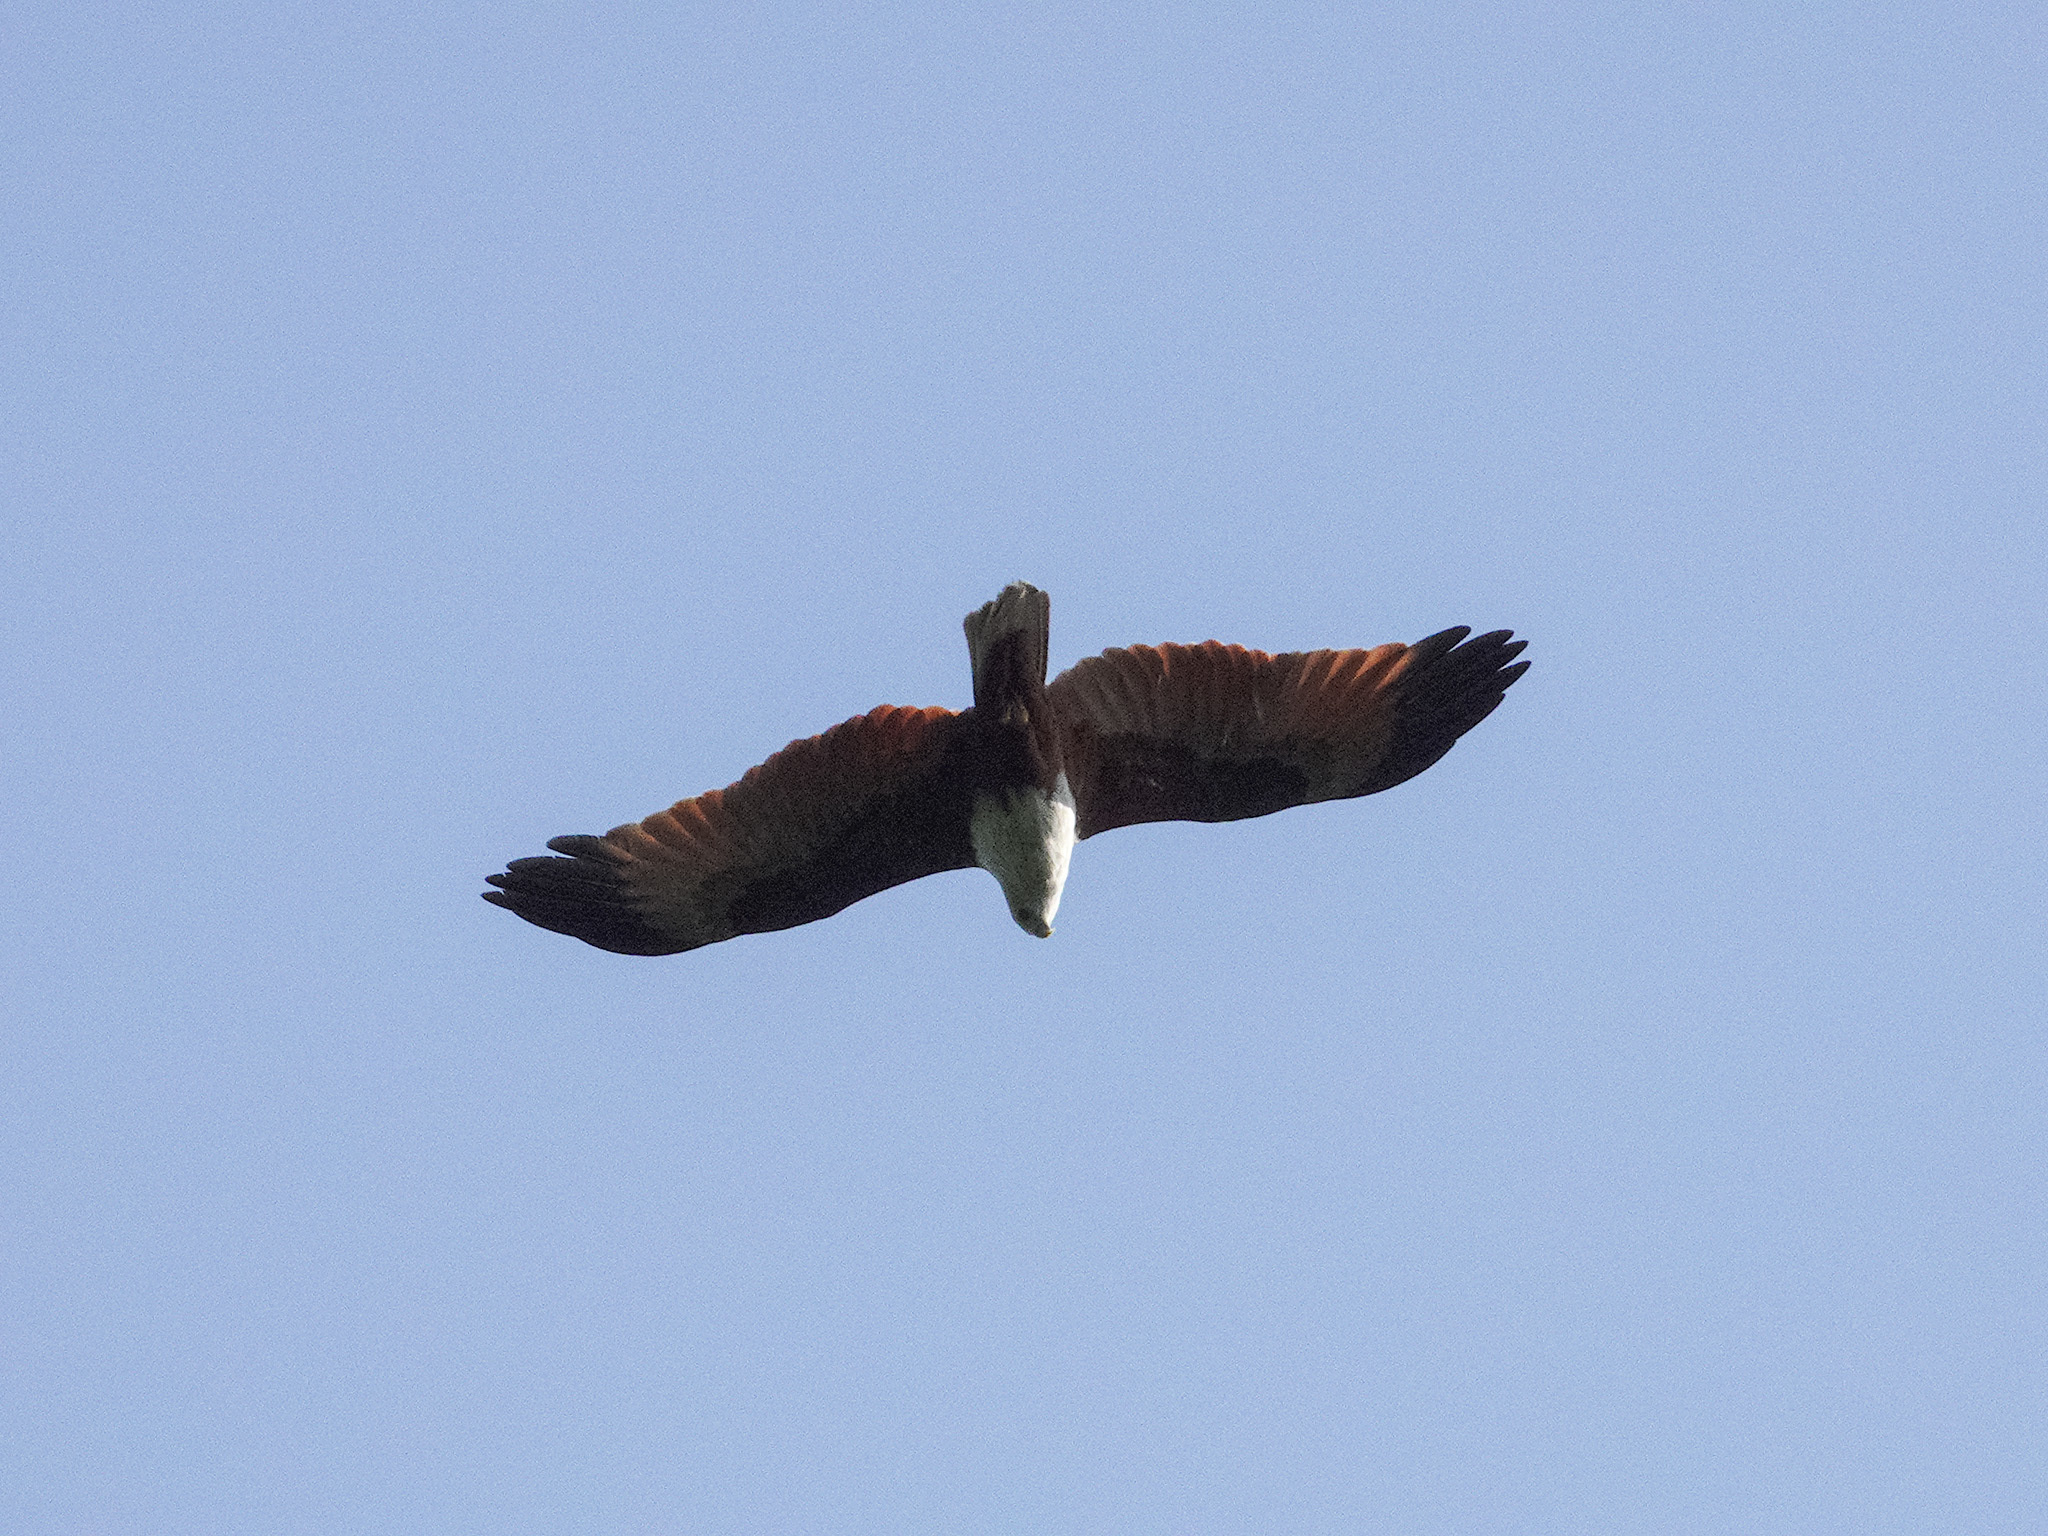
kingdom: Animalia
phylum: Chordata
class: Aves
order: Accipitriformes
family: Accipitridae
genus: Haliastur
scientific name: Haliastur indus
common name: Brahminy kite
